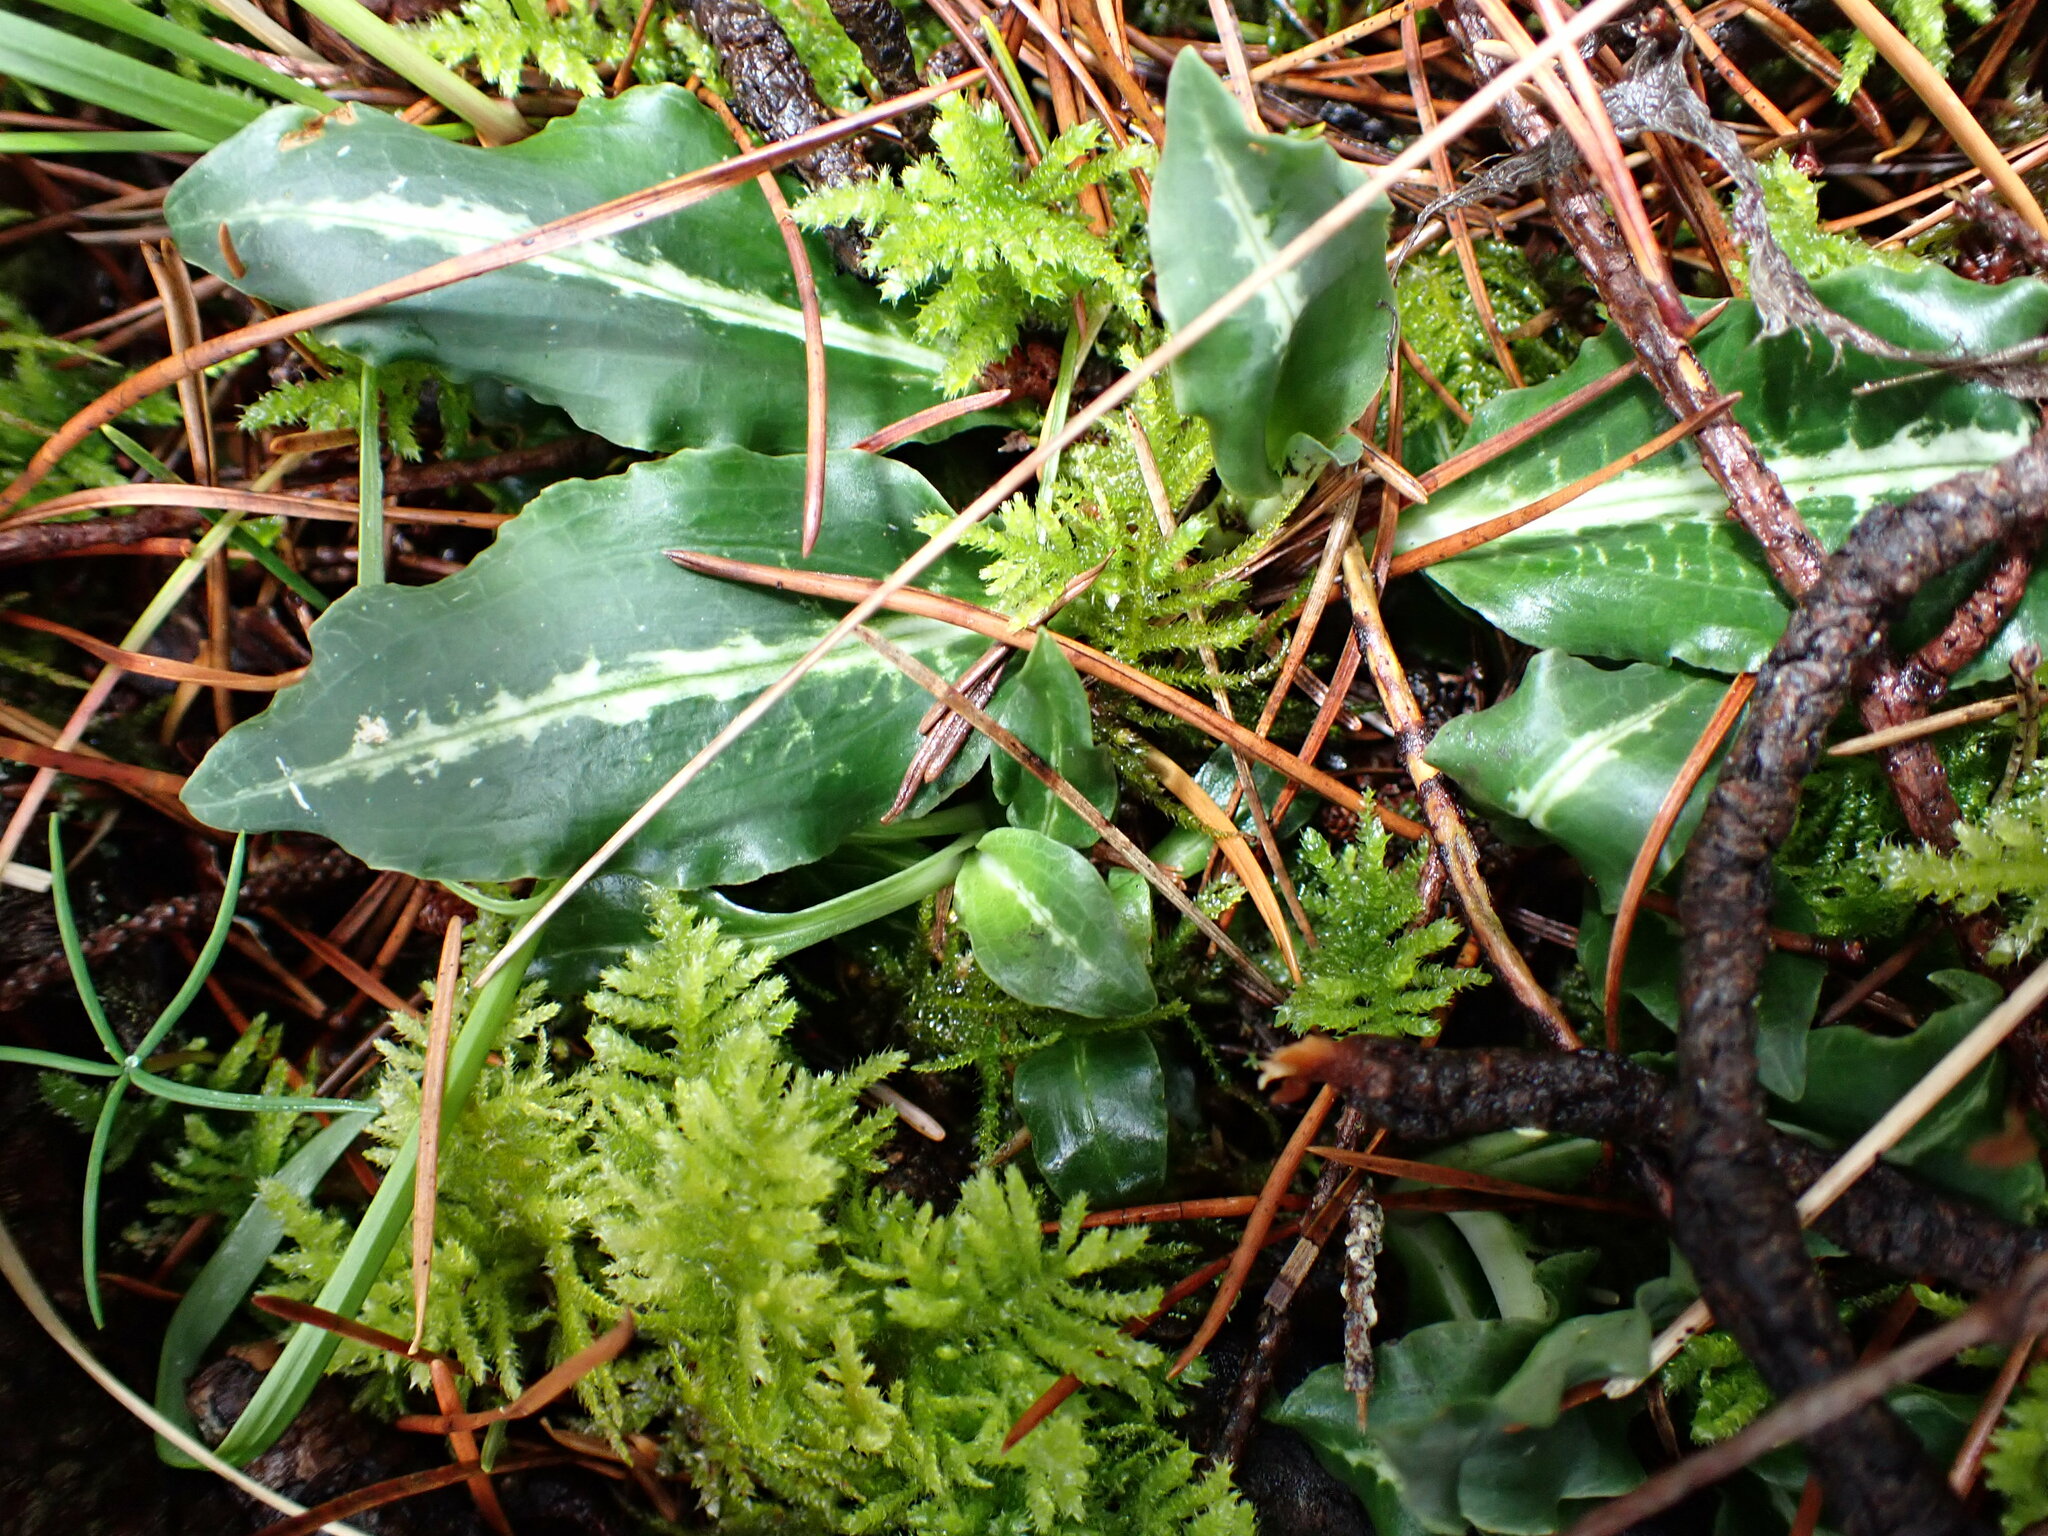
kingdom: Plantae
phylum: Tracheophyta
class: Liliopsida
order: Asparagales
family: Orchidaceae
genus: Goodyera
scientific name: Goodyera oblongifolia
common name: Giant rattlesnake-plantain
